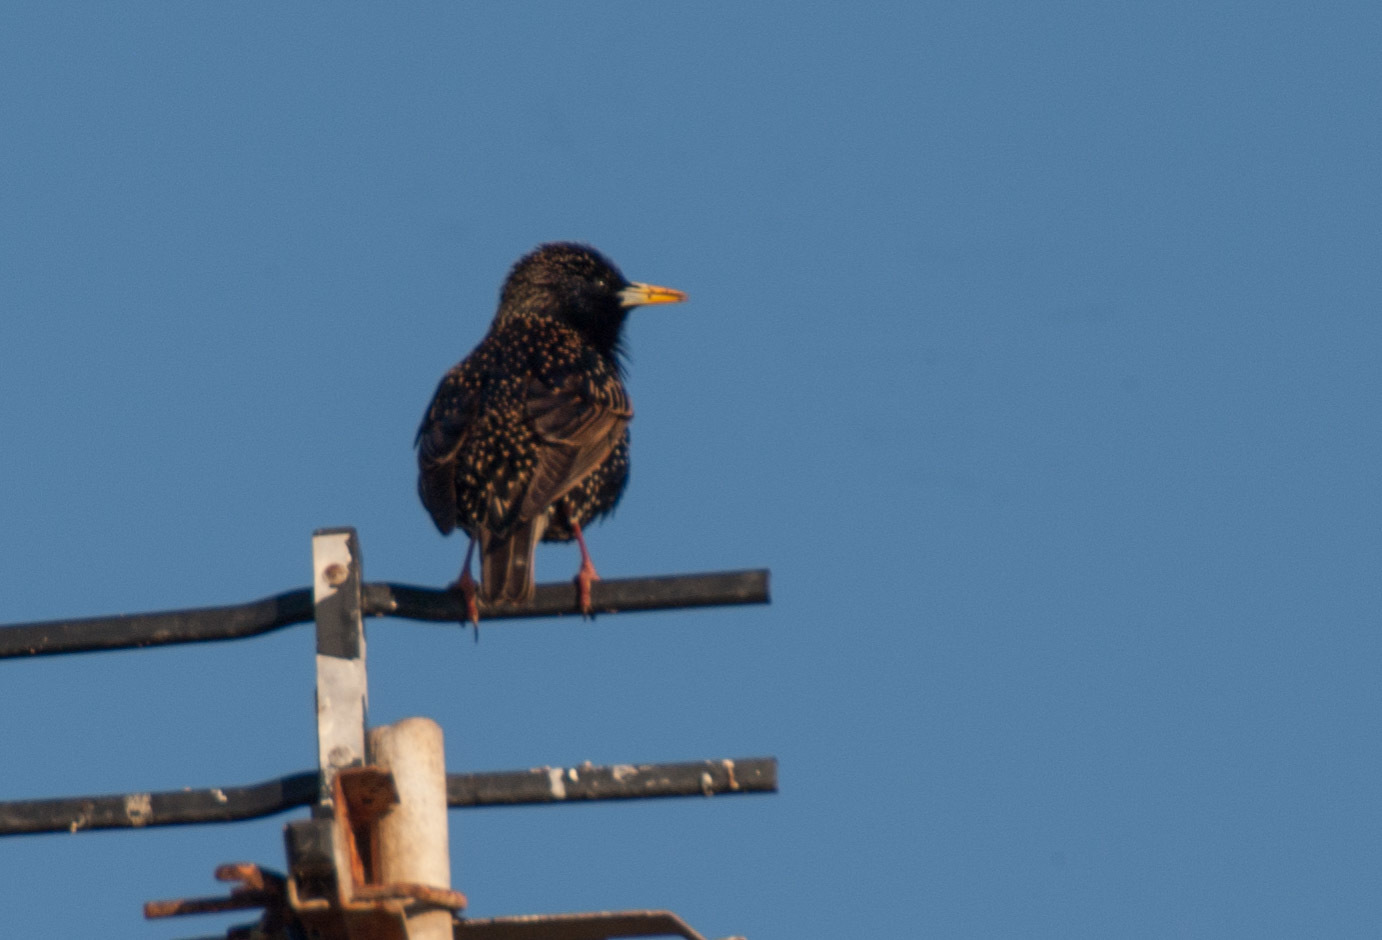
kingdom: Animalia
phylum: Chordata
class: Aves
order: Passeriformes
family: Sturnidae
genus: Sturnus
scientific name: Sturnus vulgaris
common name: Common starling
